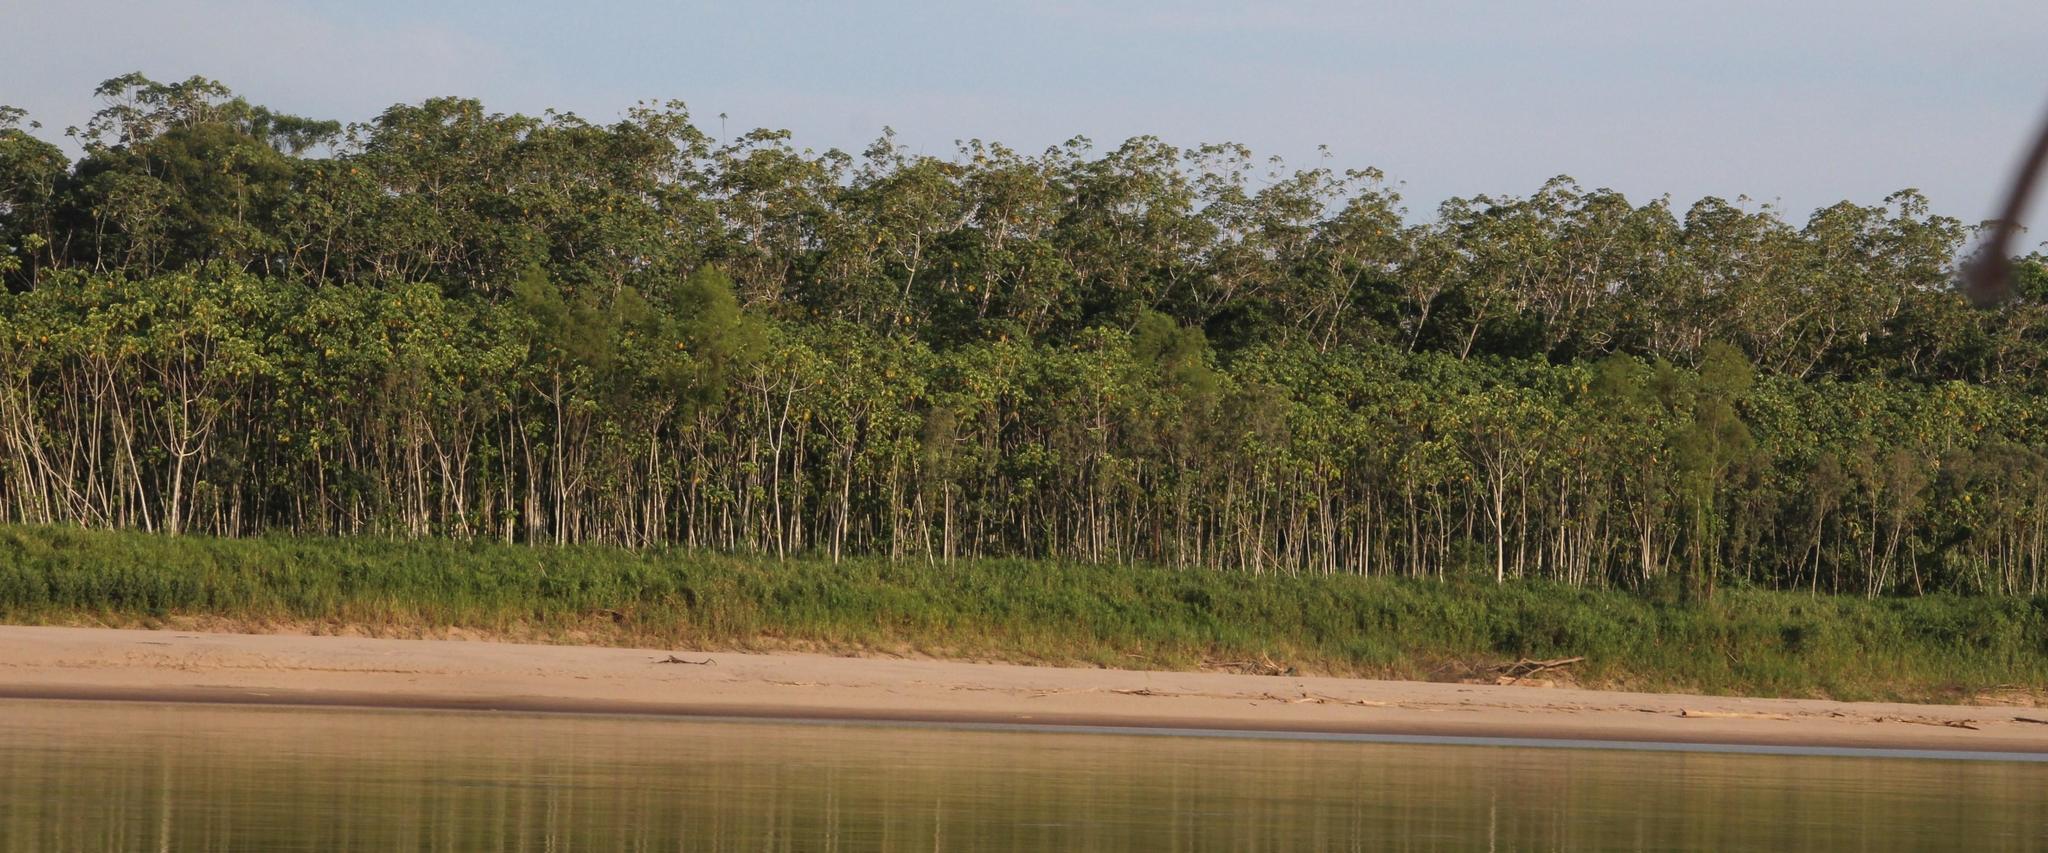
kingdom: Plantae
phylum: Tracheophyta
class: Magnoliopsida
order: Malpighiales
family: Salicaceae
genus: Salix
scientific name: Salix humboldtiana
